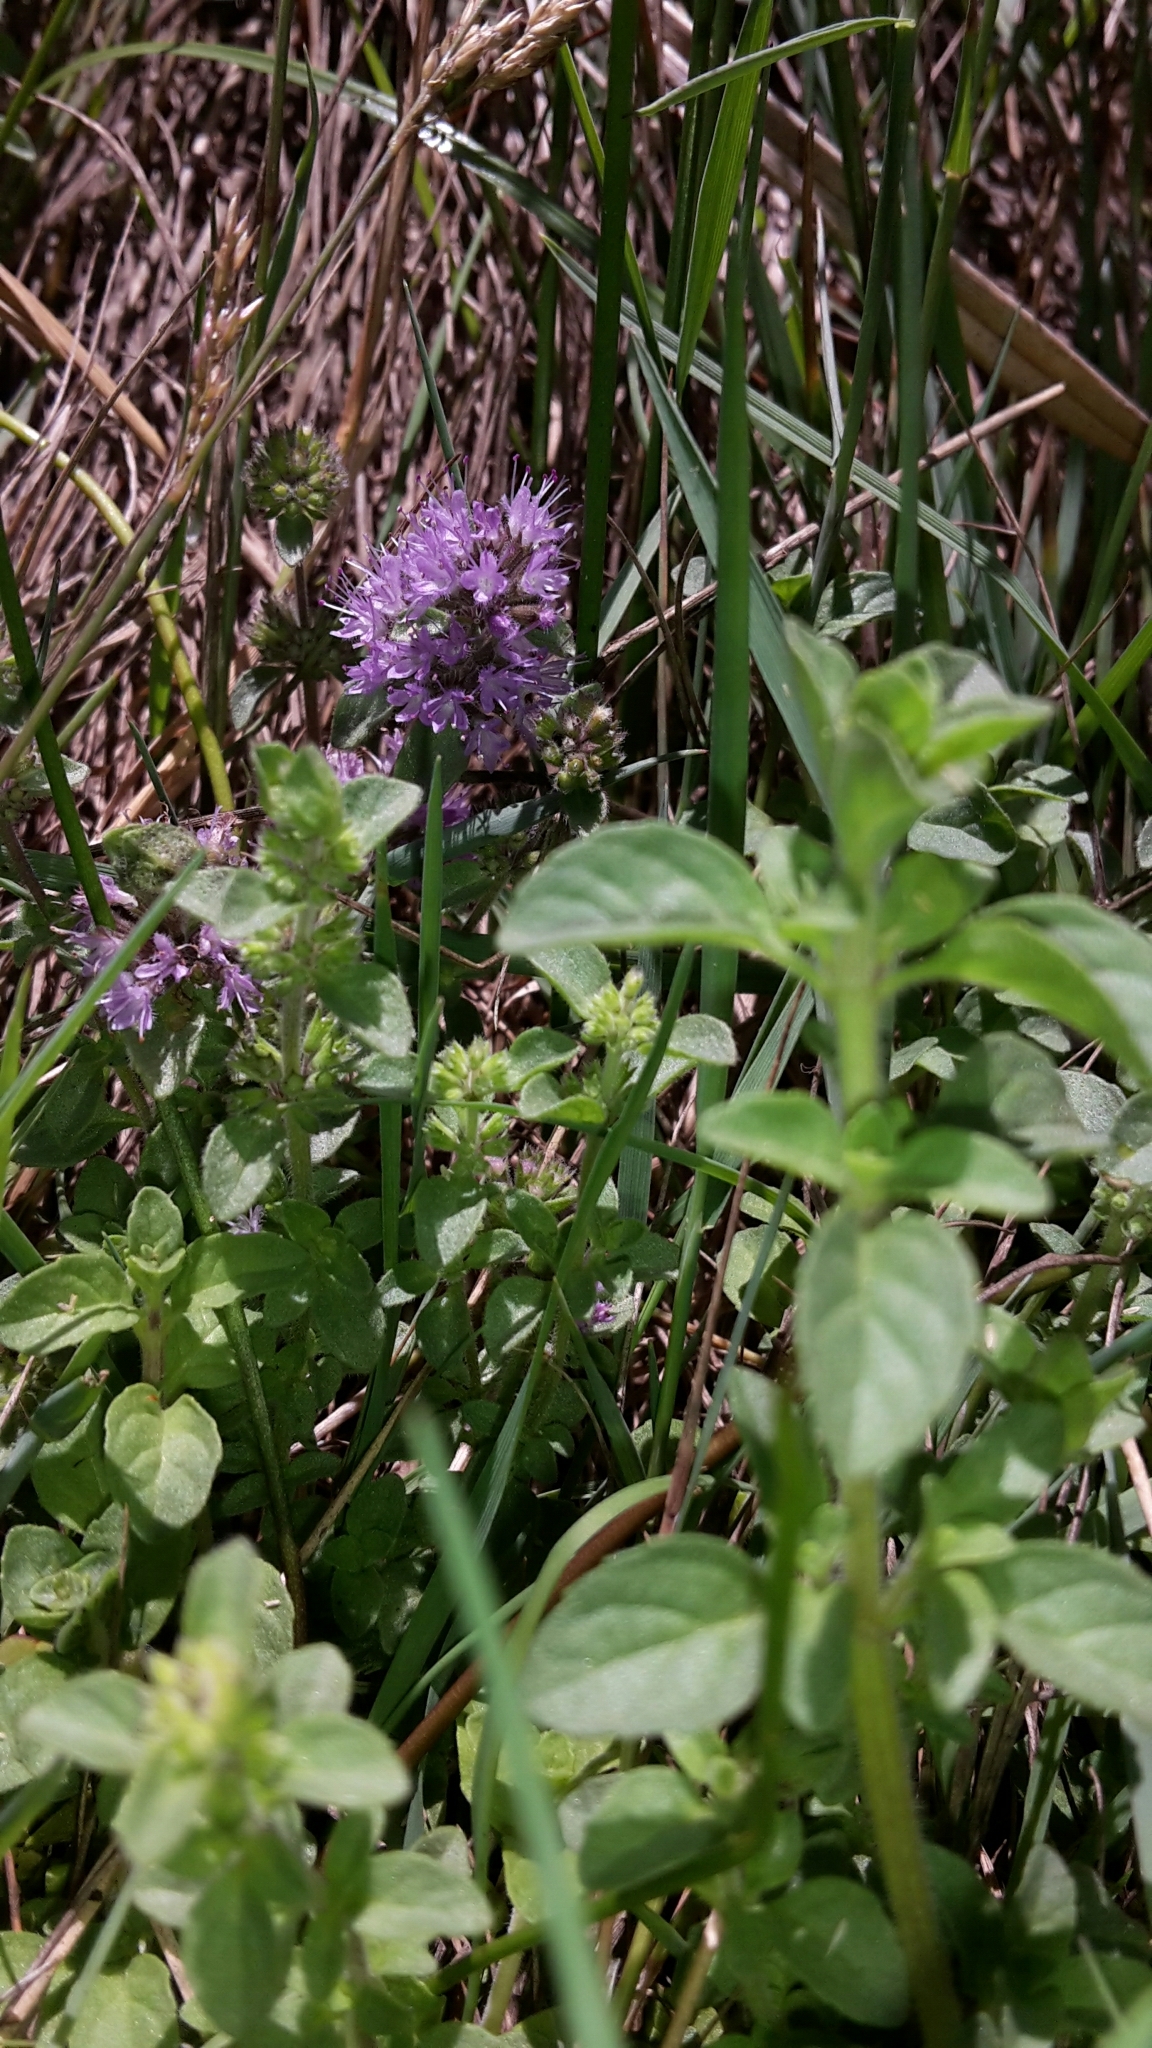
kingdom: Plantae
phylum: Tracheophyta
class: Magnoliopsida
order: Lamiales
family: Lamiaceae
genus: Mentha
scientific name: Mentha pulegium
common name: Pennyroyal
